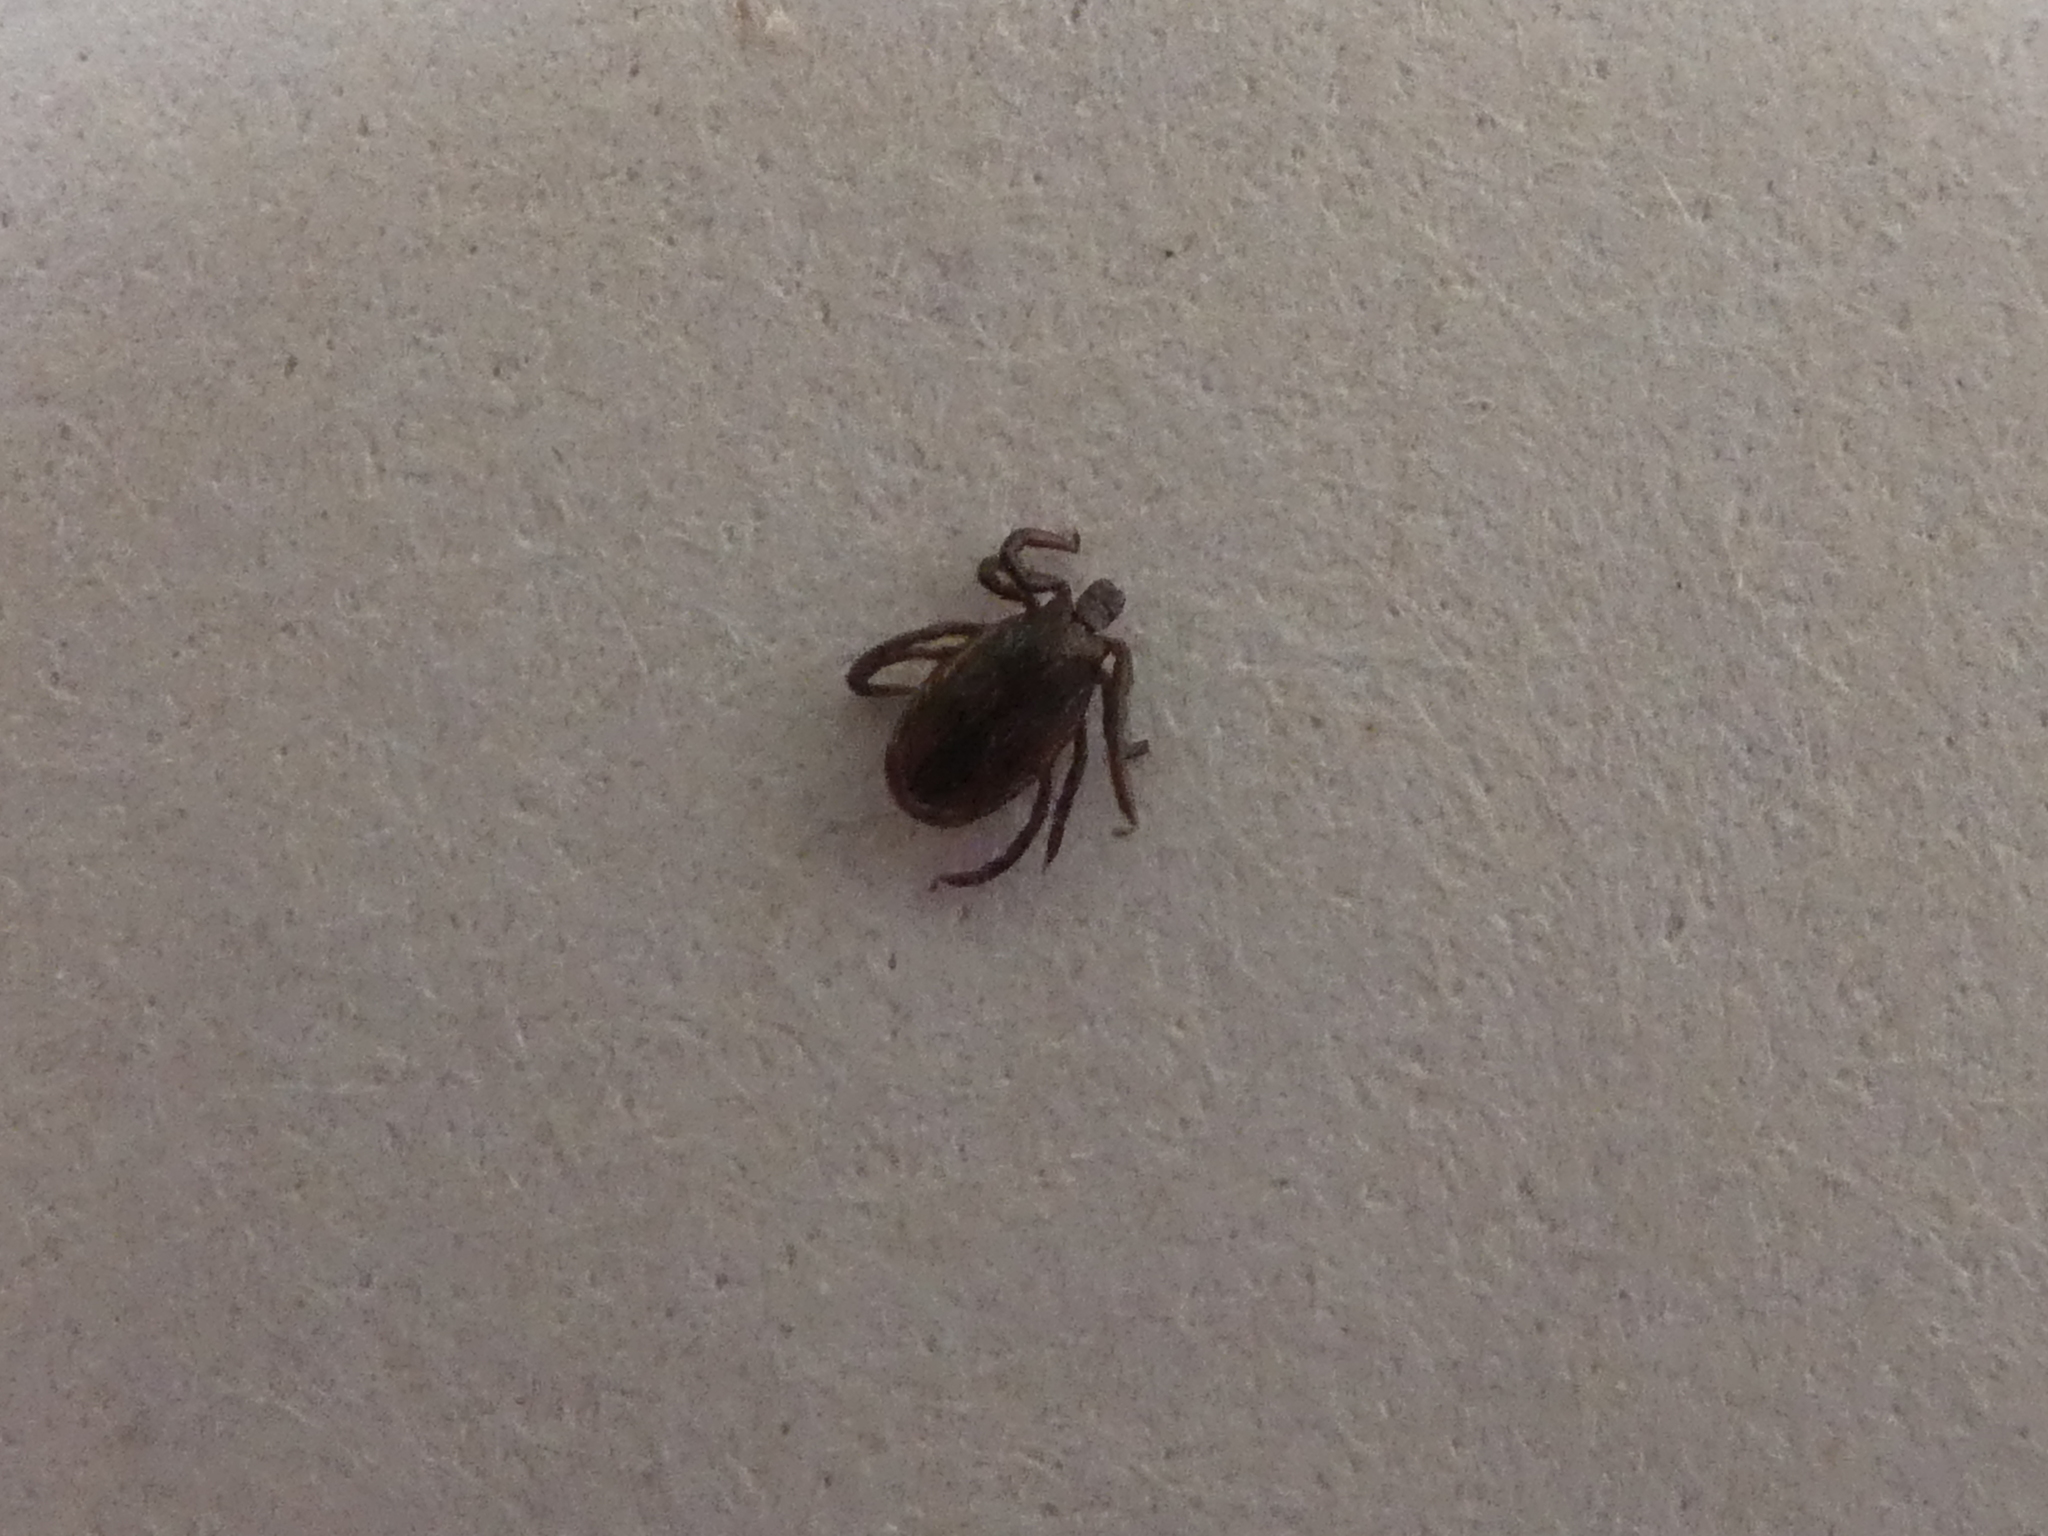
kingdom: Animalia
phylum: Arthropoda
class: Arachnida
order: Ixodida
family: Ixodidae
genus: Ixodes
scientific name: Ixodes pacificus
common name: California black-legged tick
